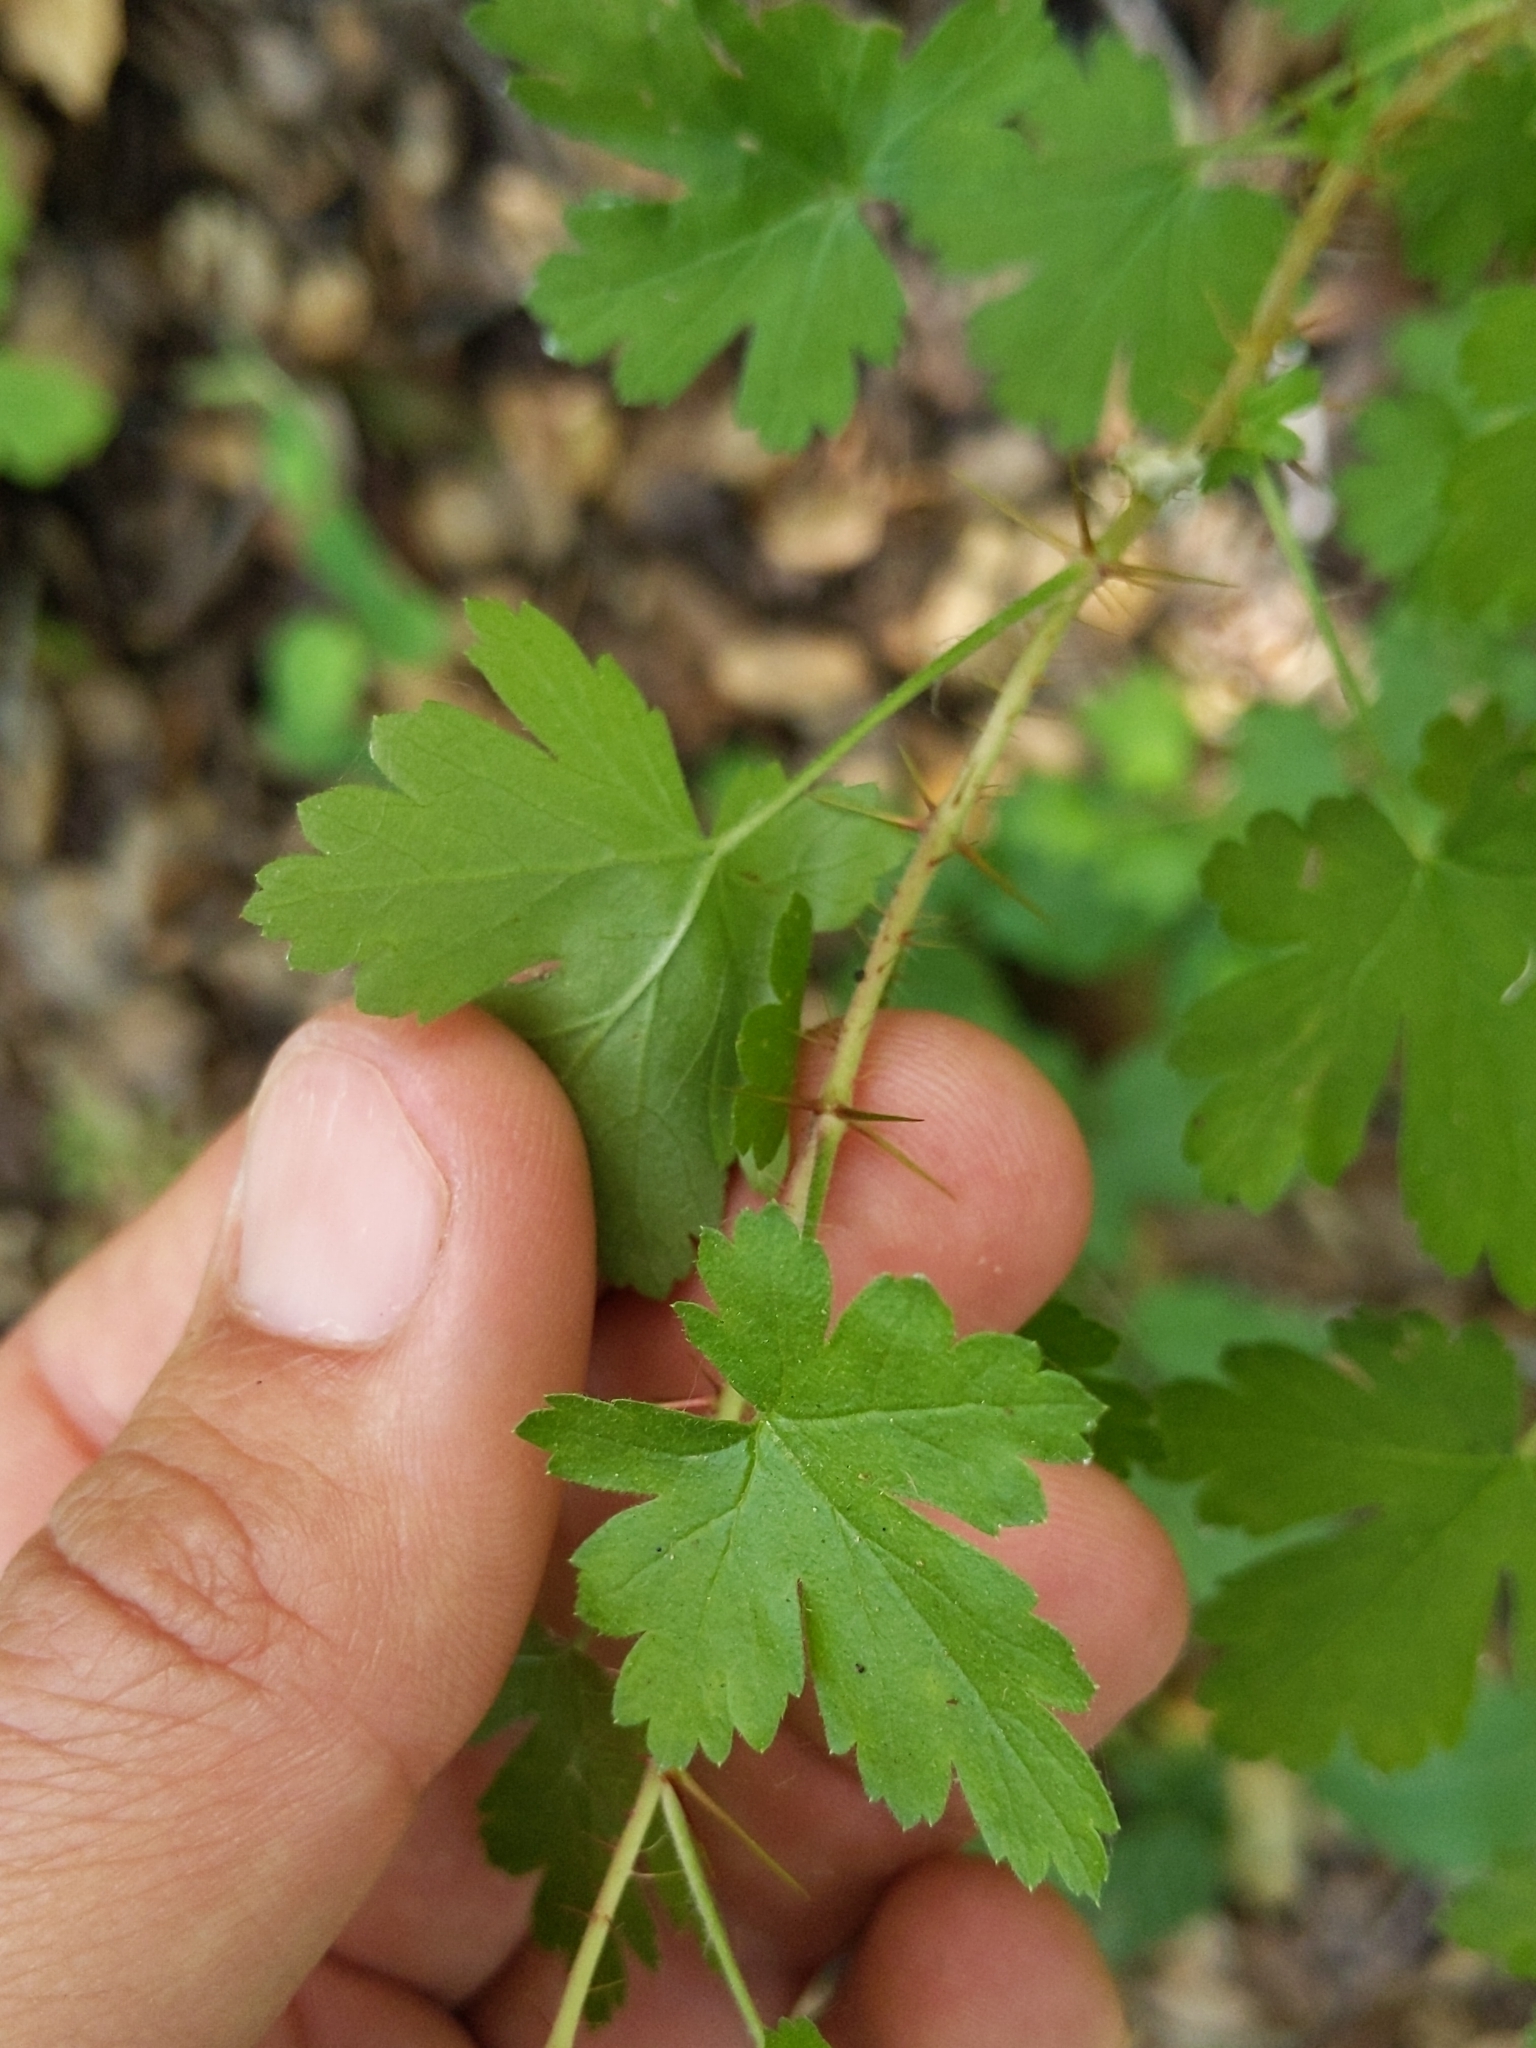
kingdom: Plantae
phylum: Tracheophyta
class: Magnoliopsida
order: Saxifragales
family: Grossulariaceae
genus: Ribes
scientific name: Ribes divaricatum
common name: Wild black gooseberry
